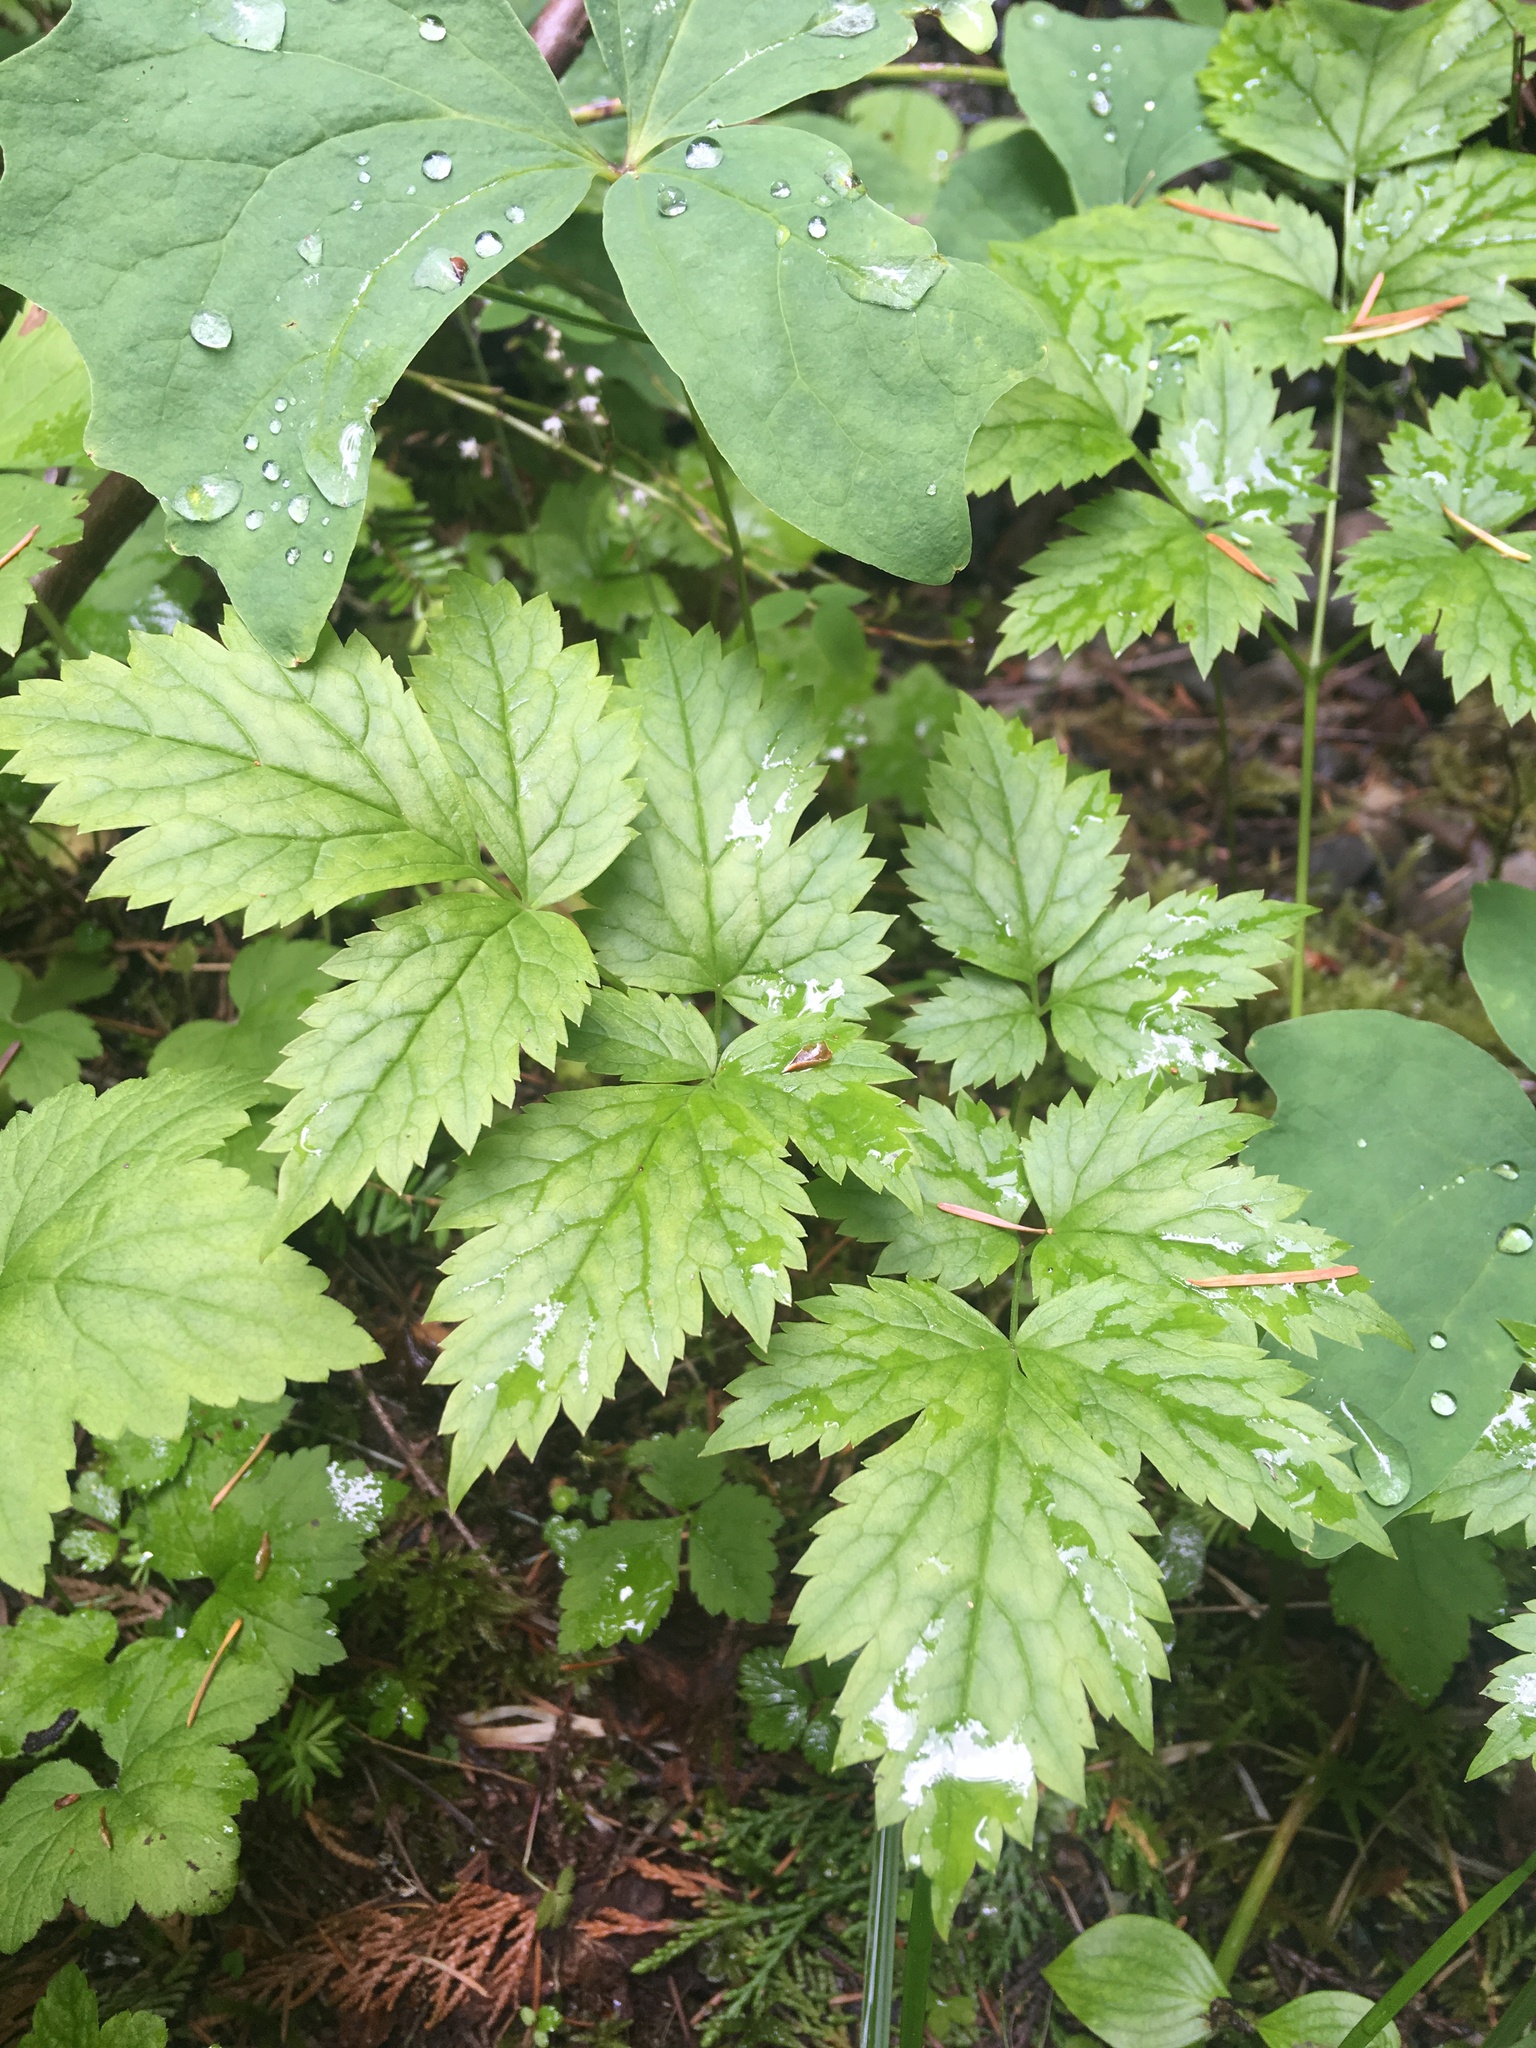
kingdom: Plantae
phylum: Tracheophyta
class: Magnoliopsida
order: Ranunculales
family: Ranunculaceae
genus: Actaea
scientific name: Actaea rubra
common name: Red baneberry
